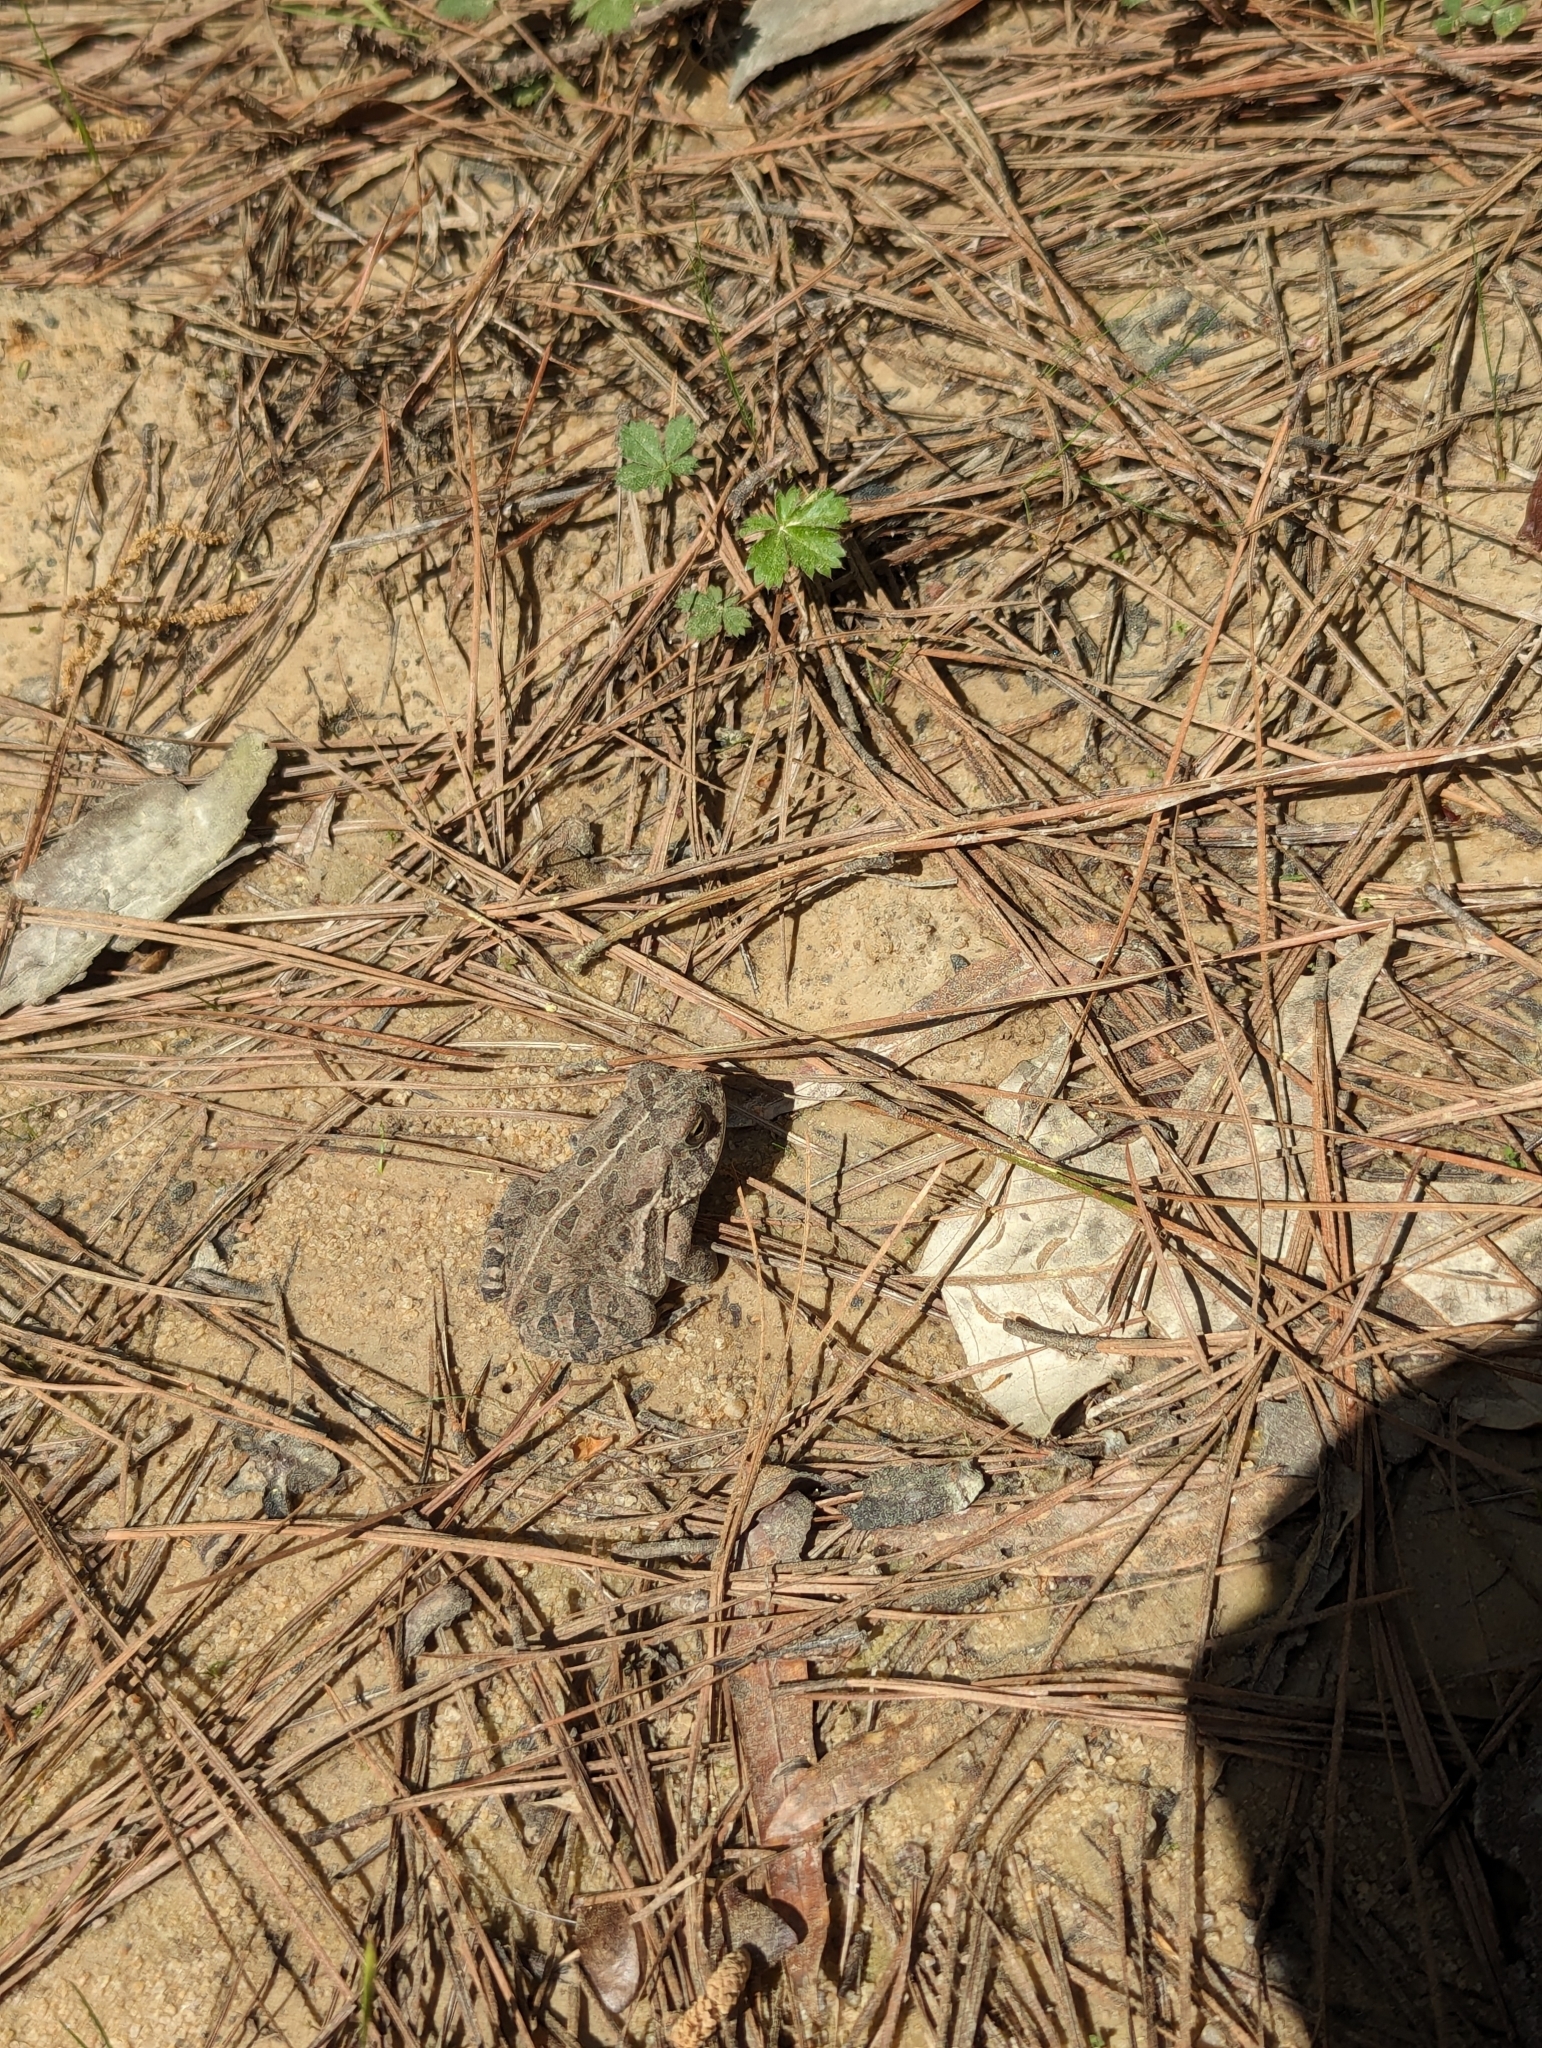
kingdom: Animalia
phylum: Chordata
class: Amphibia
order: Anura
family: Bufonidae
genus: Anaxyrus
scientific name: Anaxyrus fowleri
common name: Fowler's toad
